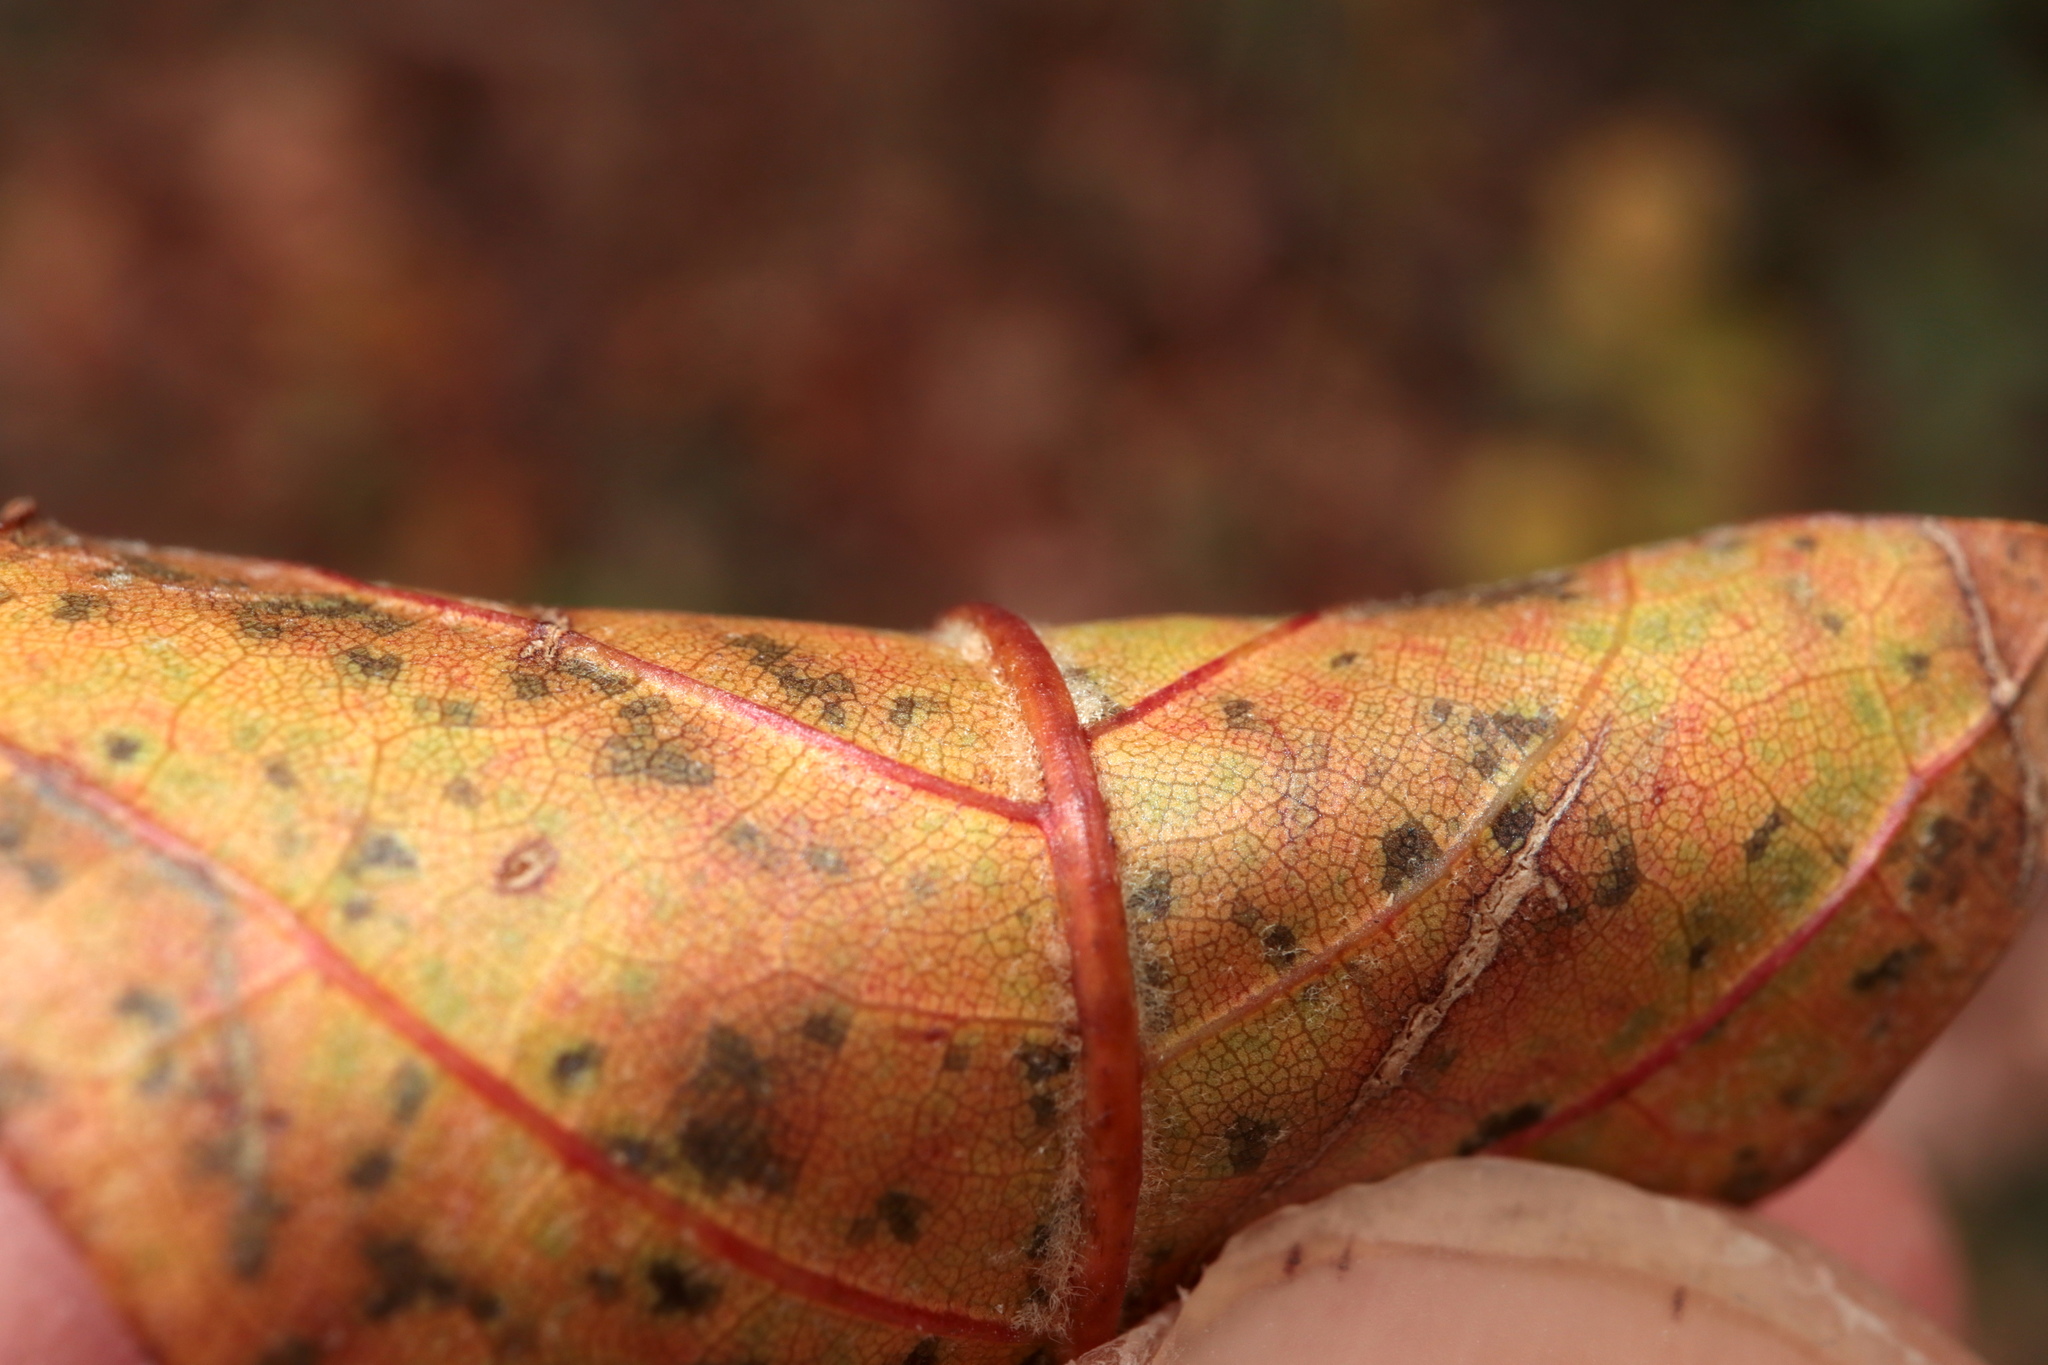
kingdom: Plantae
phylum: Tracheophyta
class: Magnoliopsida
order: Fagales
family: Fagaceae
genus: Quercus
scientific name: Quercus leana
